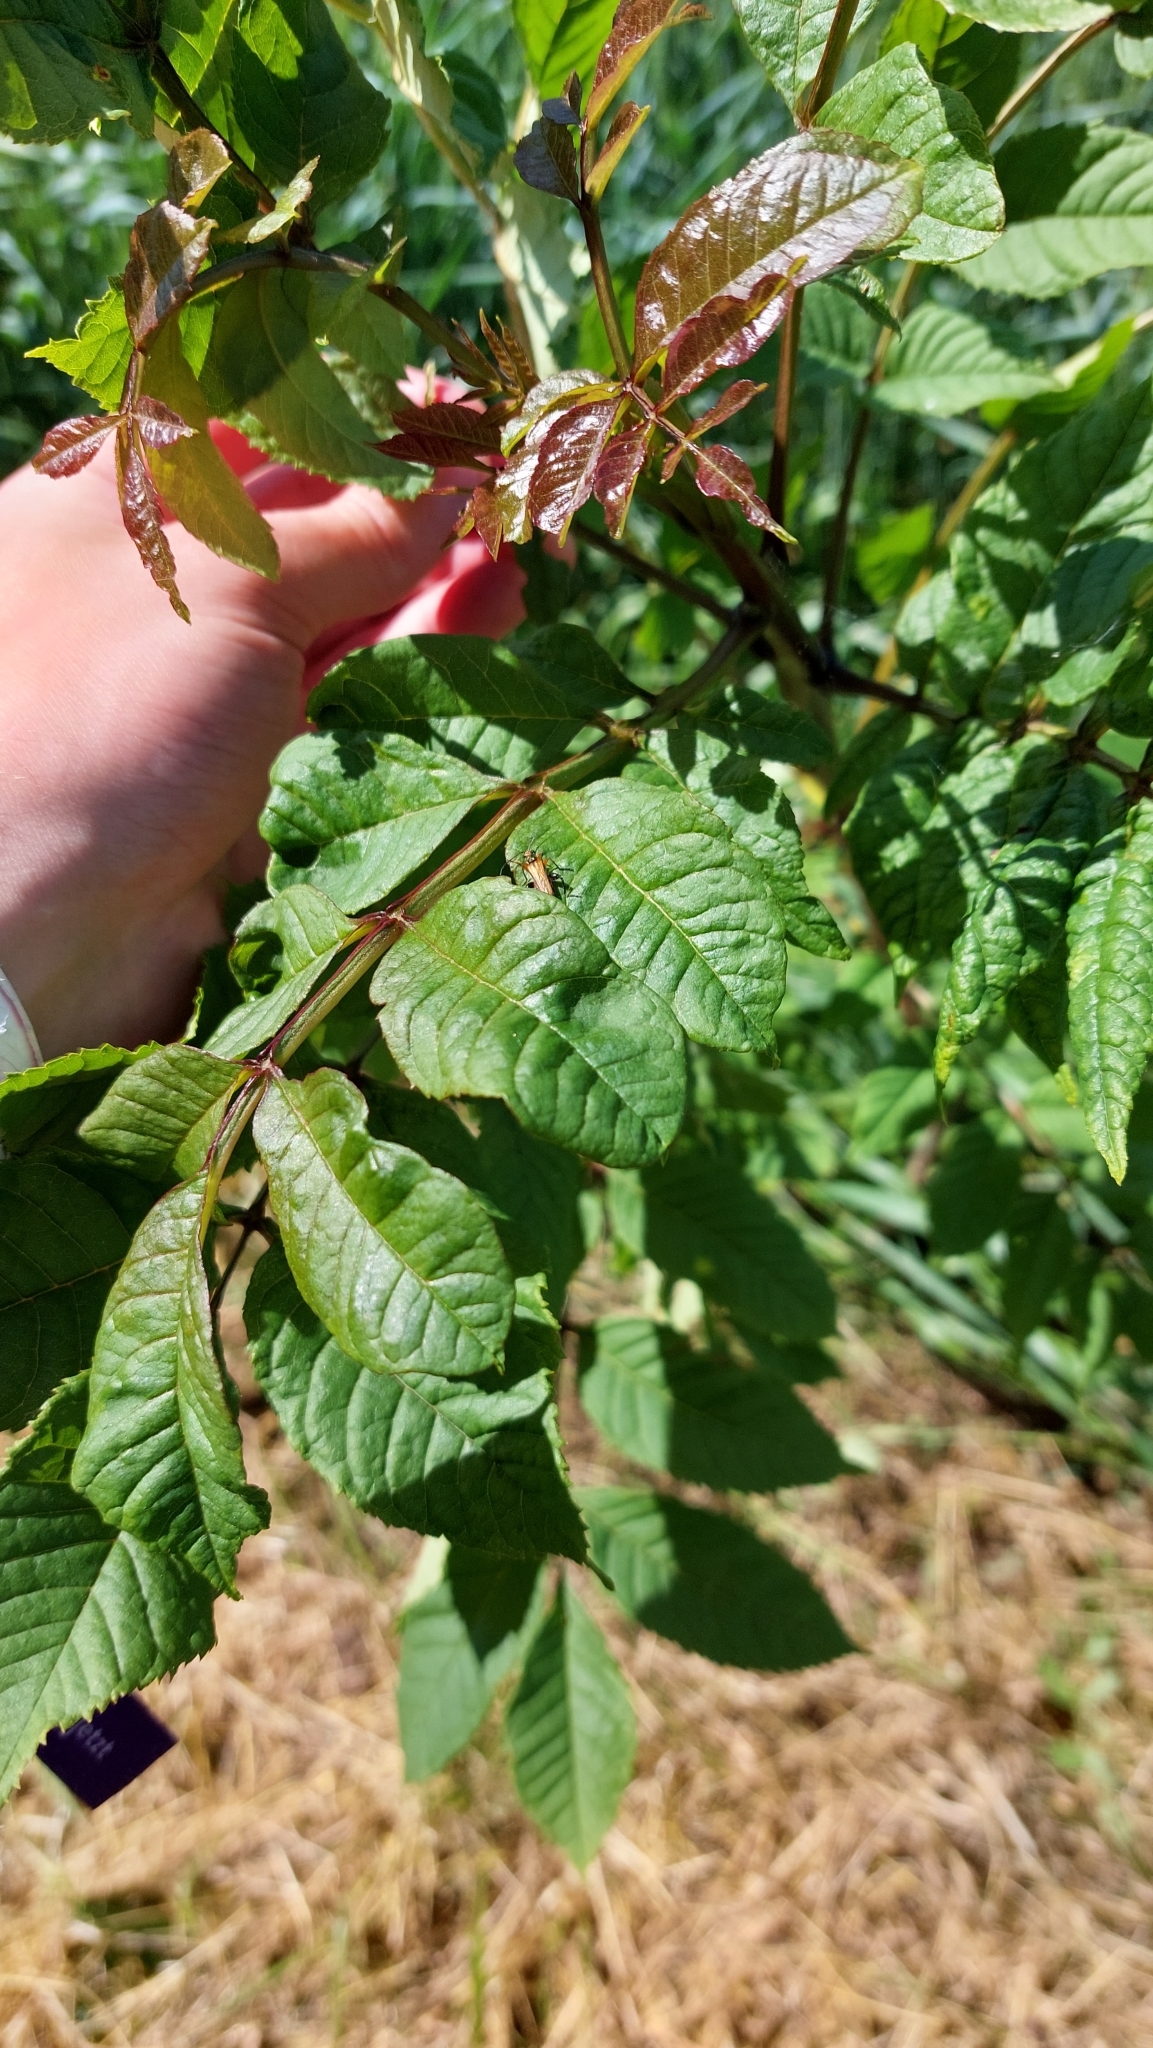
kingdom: Plantae
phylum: Tracheophyta
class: Magnoliopsida
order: Lamiales
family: Oleaceae
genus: Fraxinus
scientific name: Fraxinus excelsior
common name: European ash
